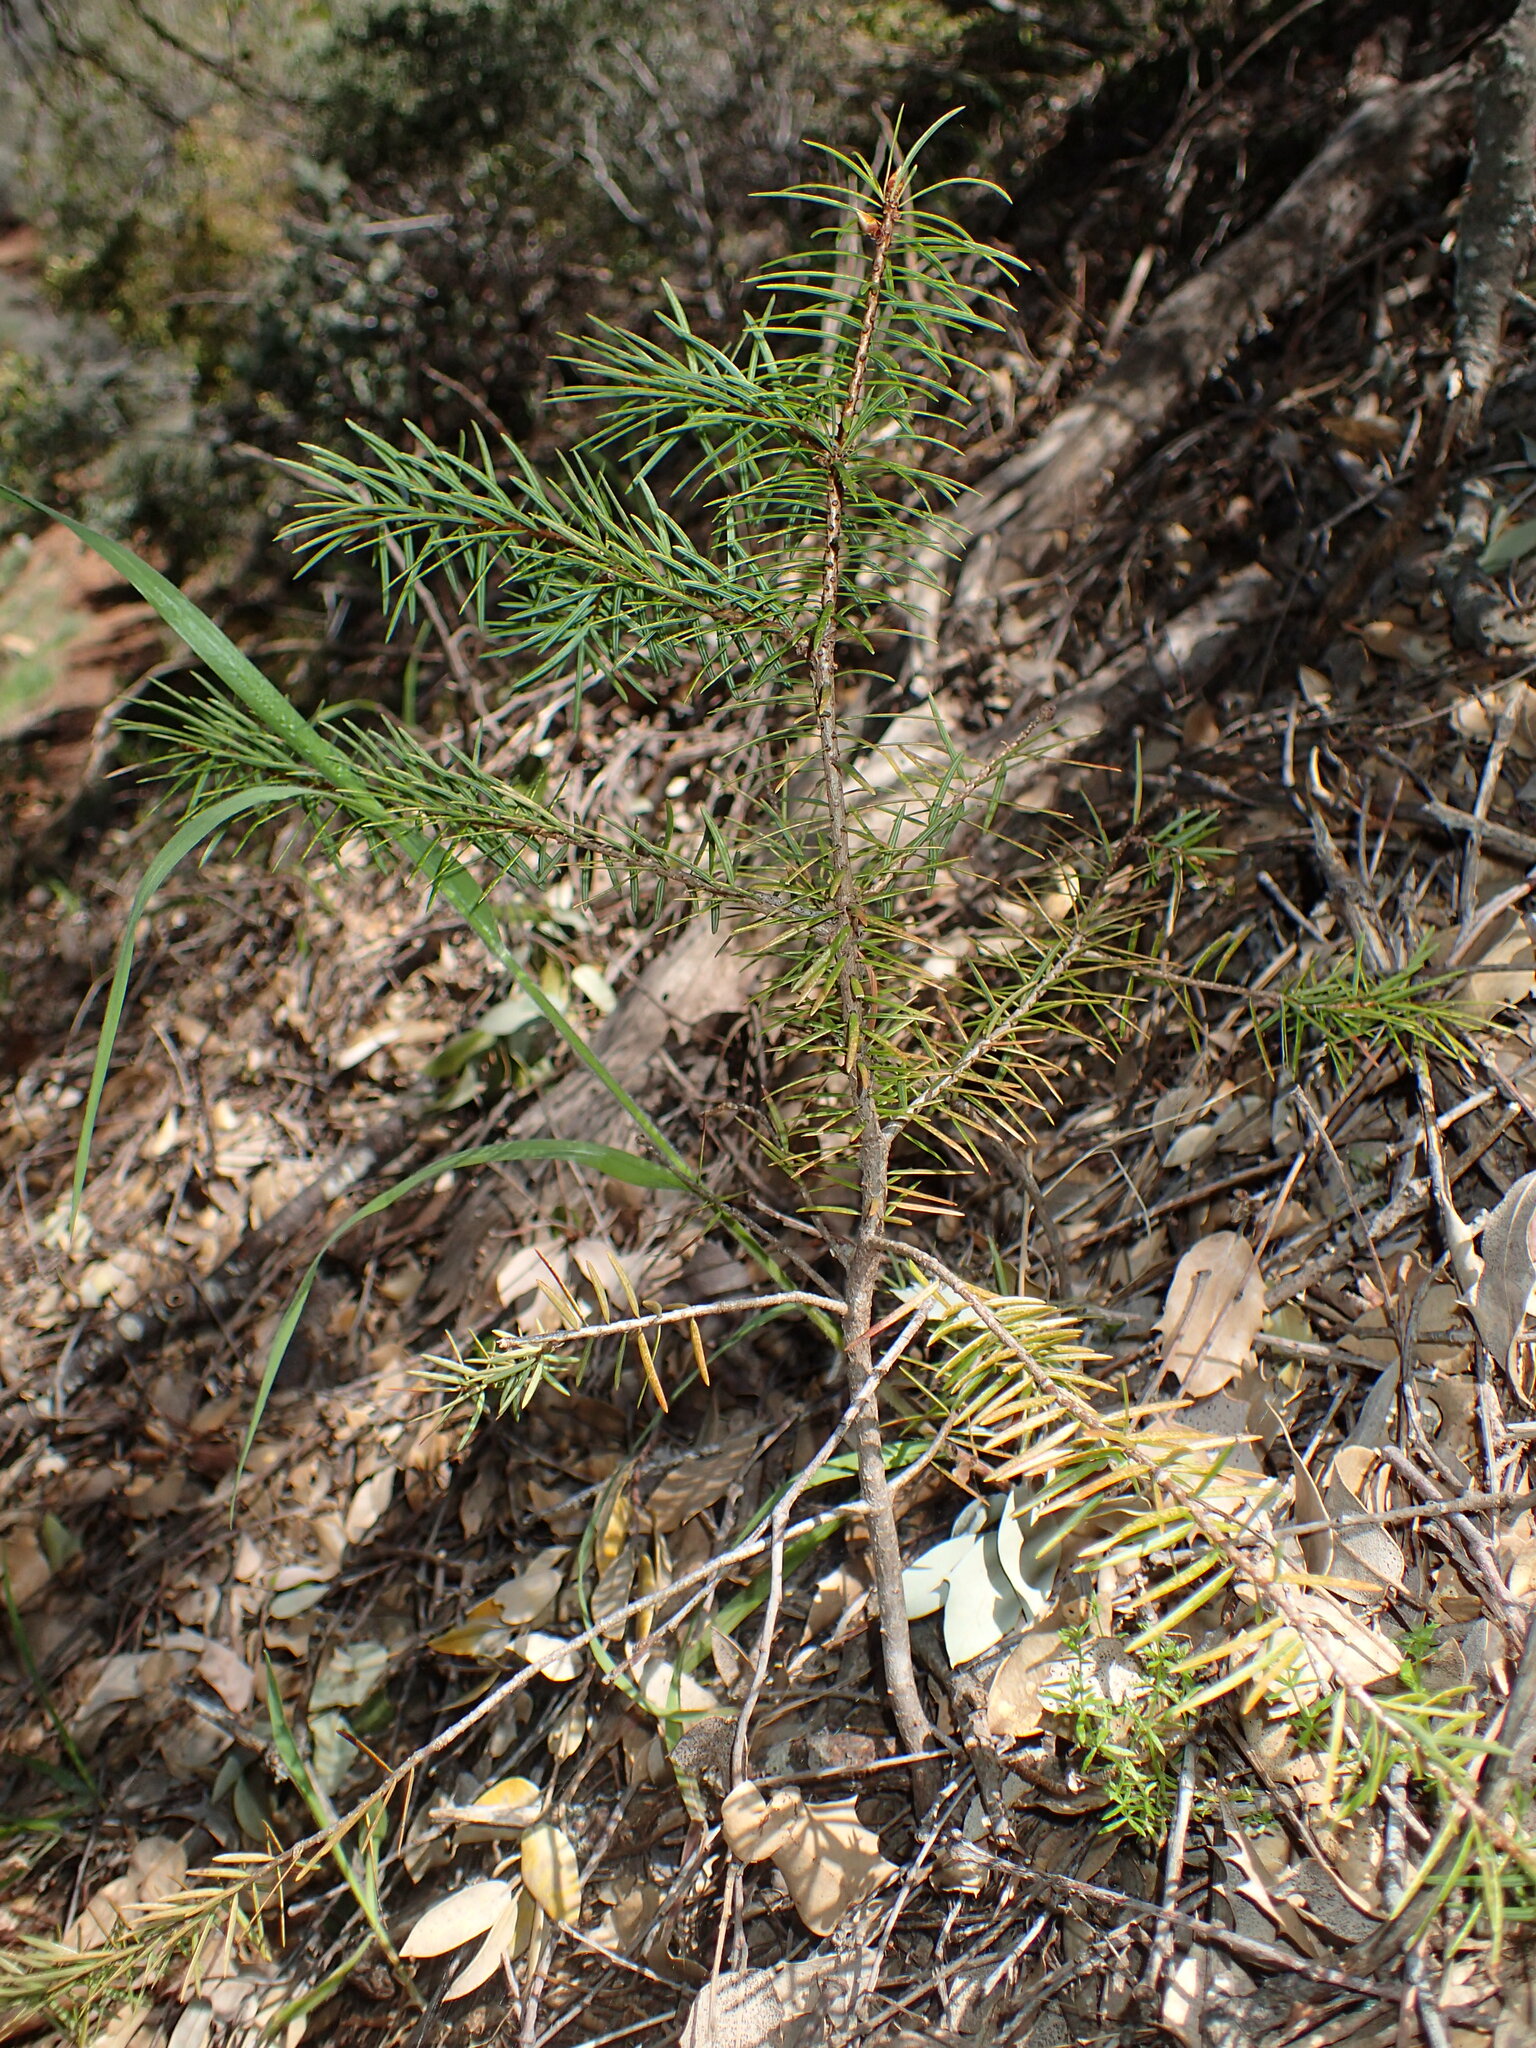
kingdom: Plantae
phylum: Tracheophyta
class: Pinopsida
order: Pinales
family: Pinaceae
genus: Pseudotsuga
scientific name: Pseudotsuga macrocarpa
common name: Big-cone douglas-fir
